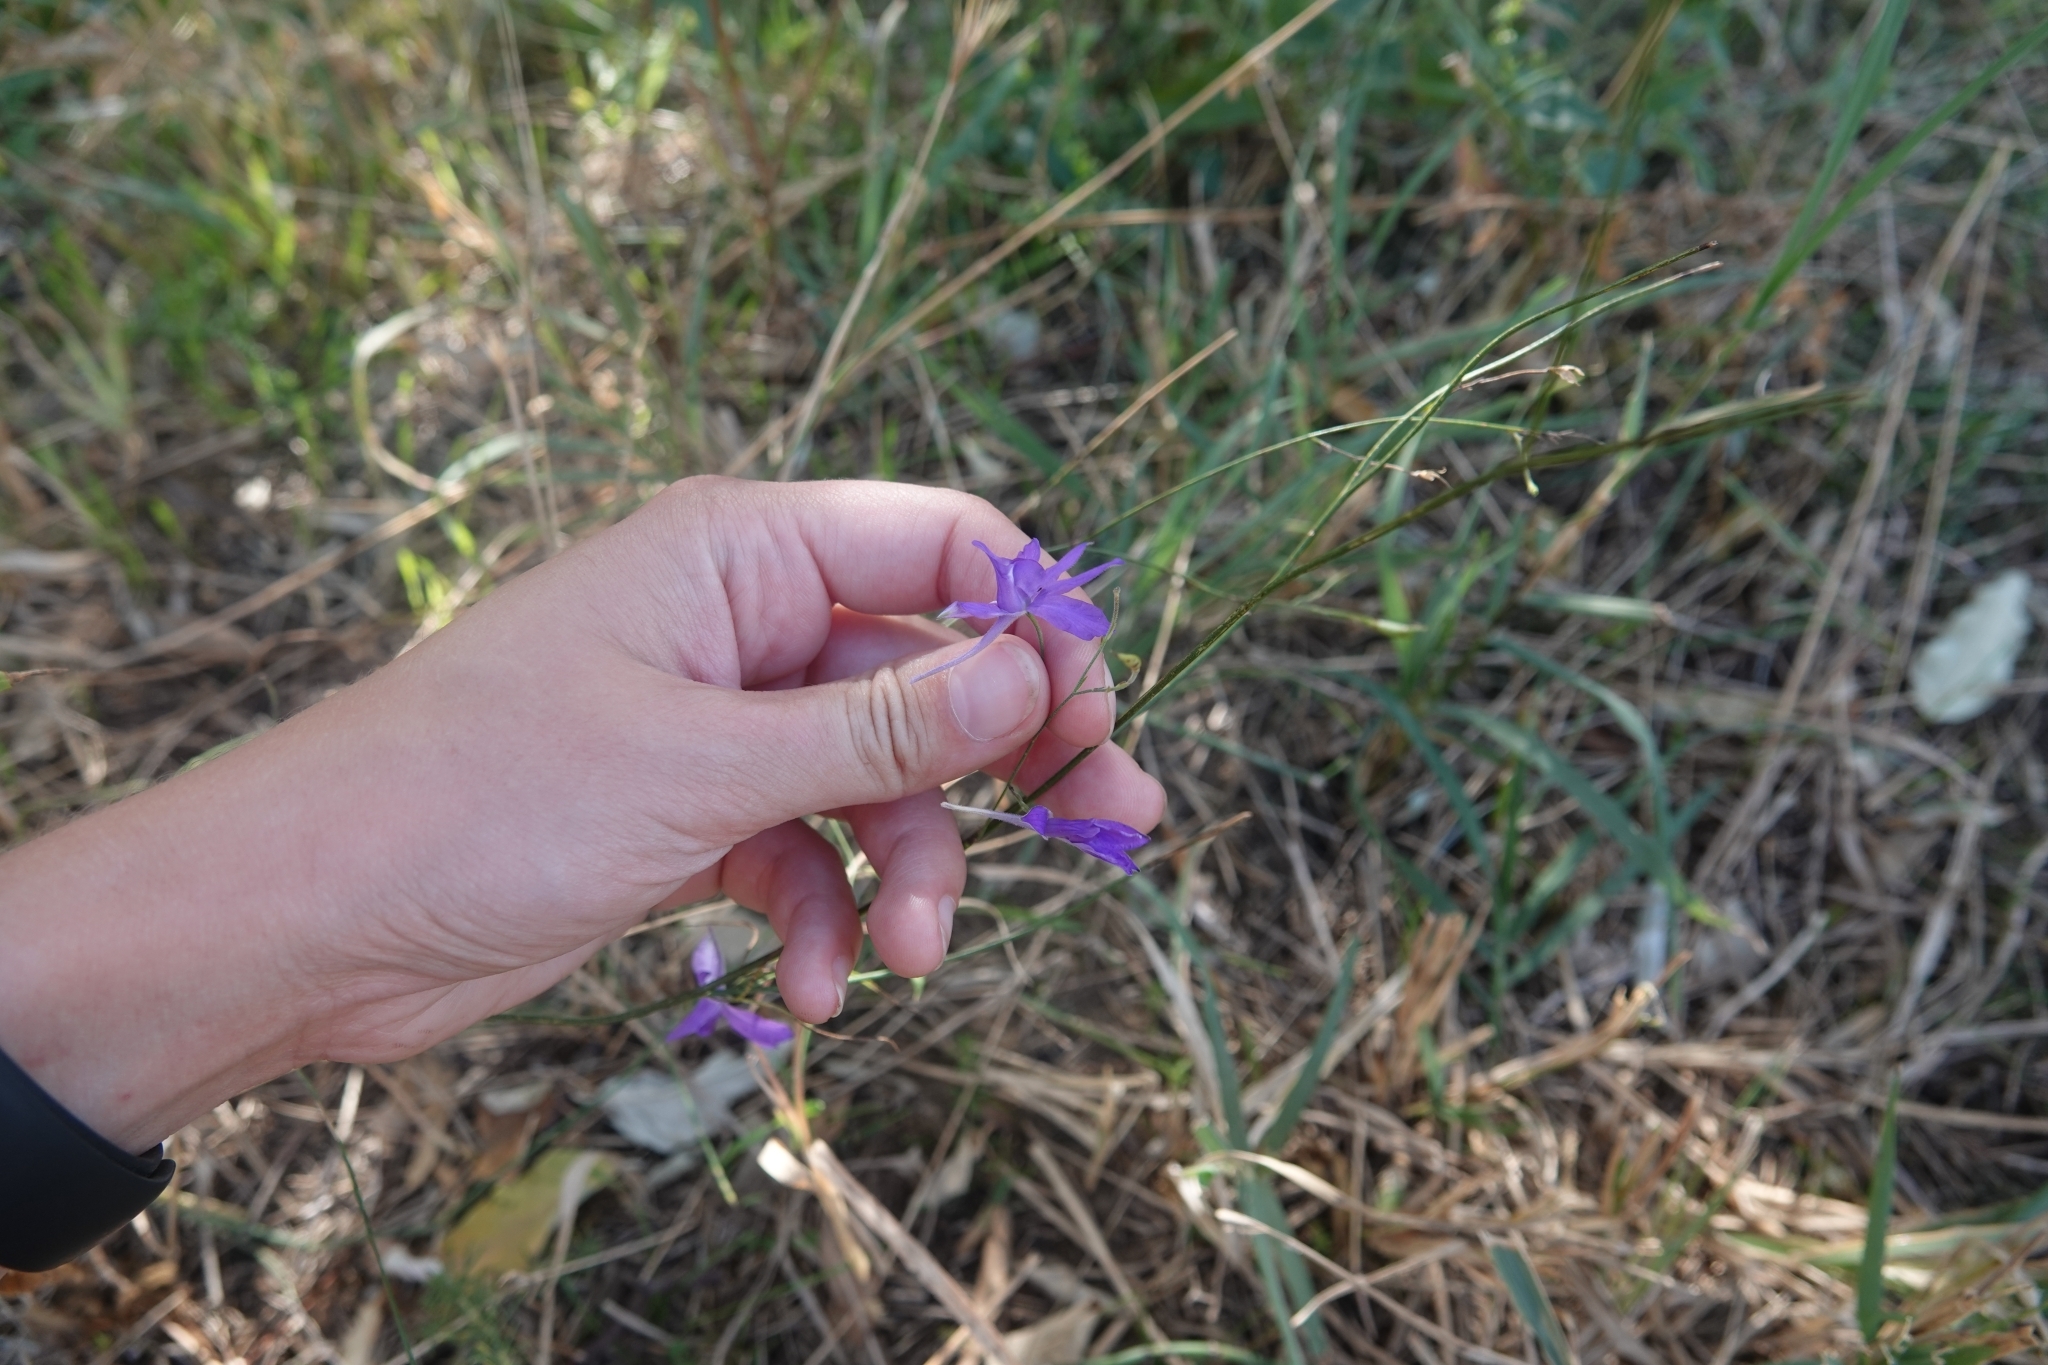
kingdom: Plantae
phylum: Tracheophyta
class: Magnoliopsida
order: Ranunculales
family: Ranunculaceae
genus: Delphinium
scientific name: Delphinium consolida
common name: Branching larkspur
